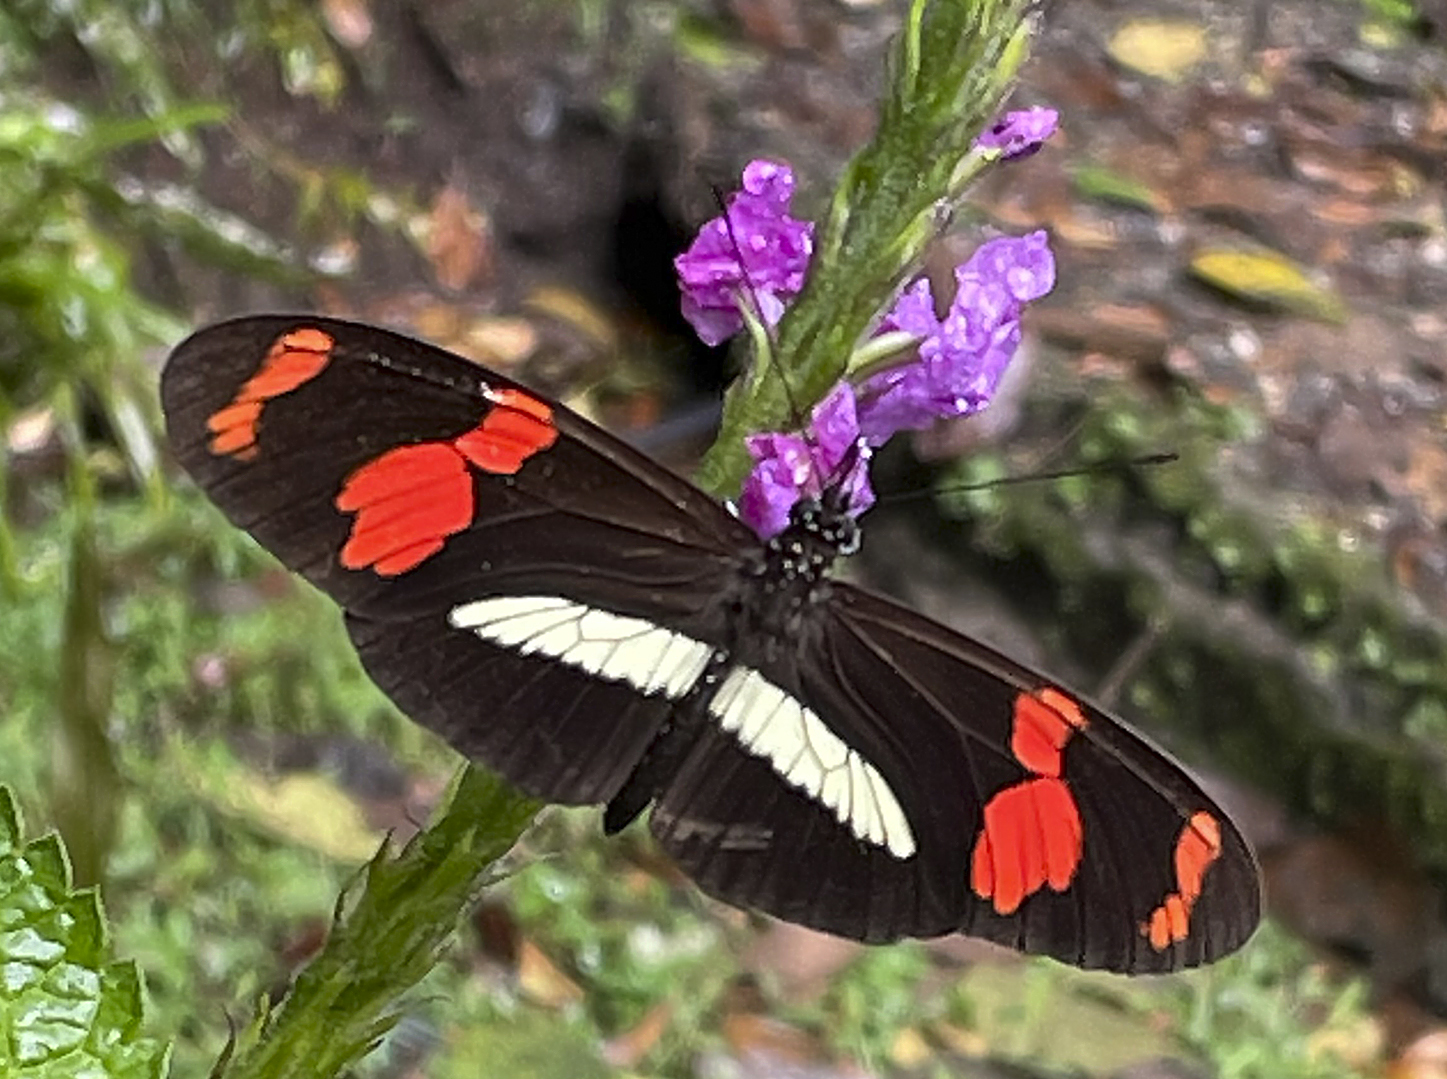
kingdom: Animalia
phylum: Arthropoda
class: Insecta
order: Lepidoptera
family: Nymphalidae
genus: Heliconius
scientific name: Heliconius telesiphe
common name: Telesiphe longwing
